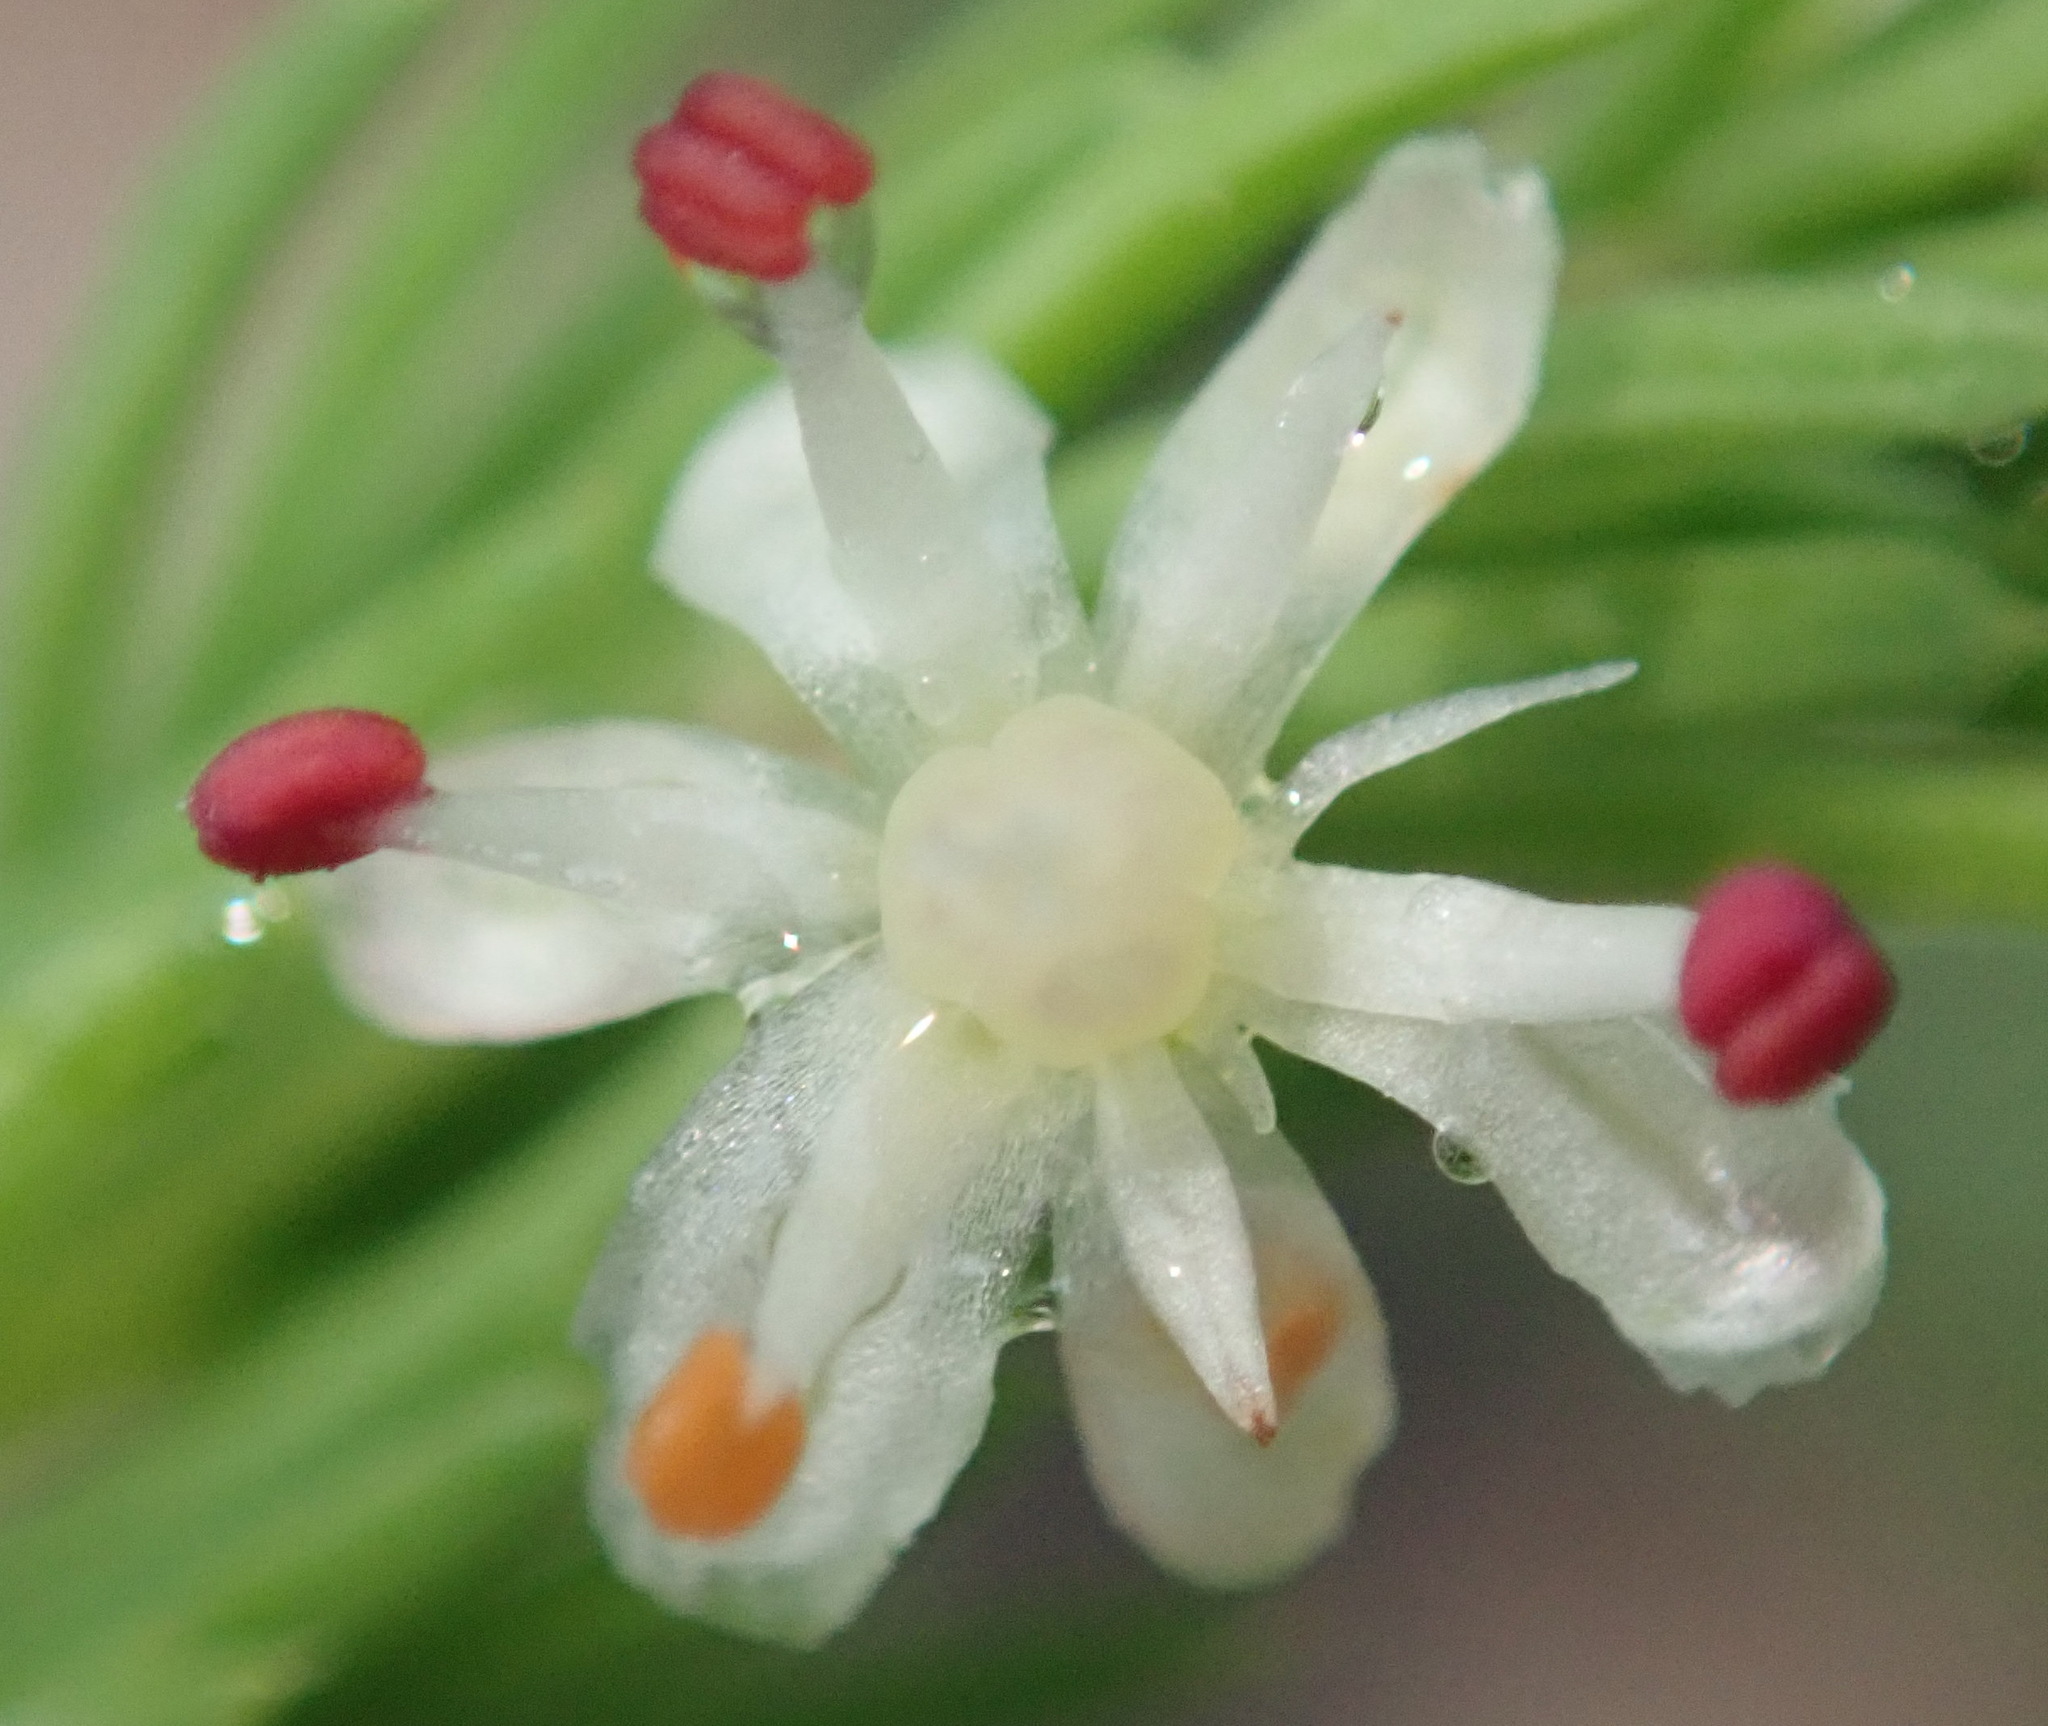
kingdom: Plantae
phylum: Tracheophyta
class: Liliopsida
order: Asparagales
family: Asparagaceae
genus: Asparagus
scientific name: Asparagus rubicundus
